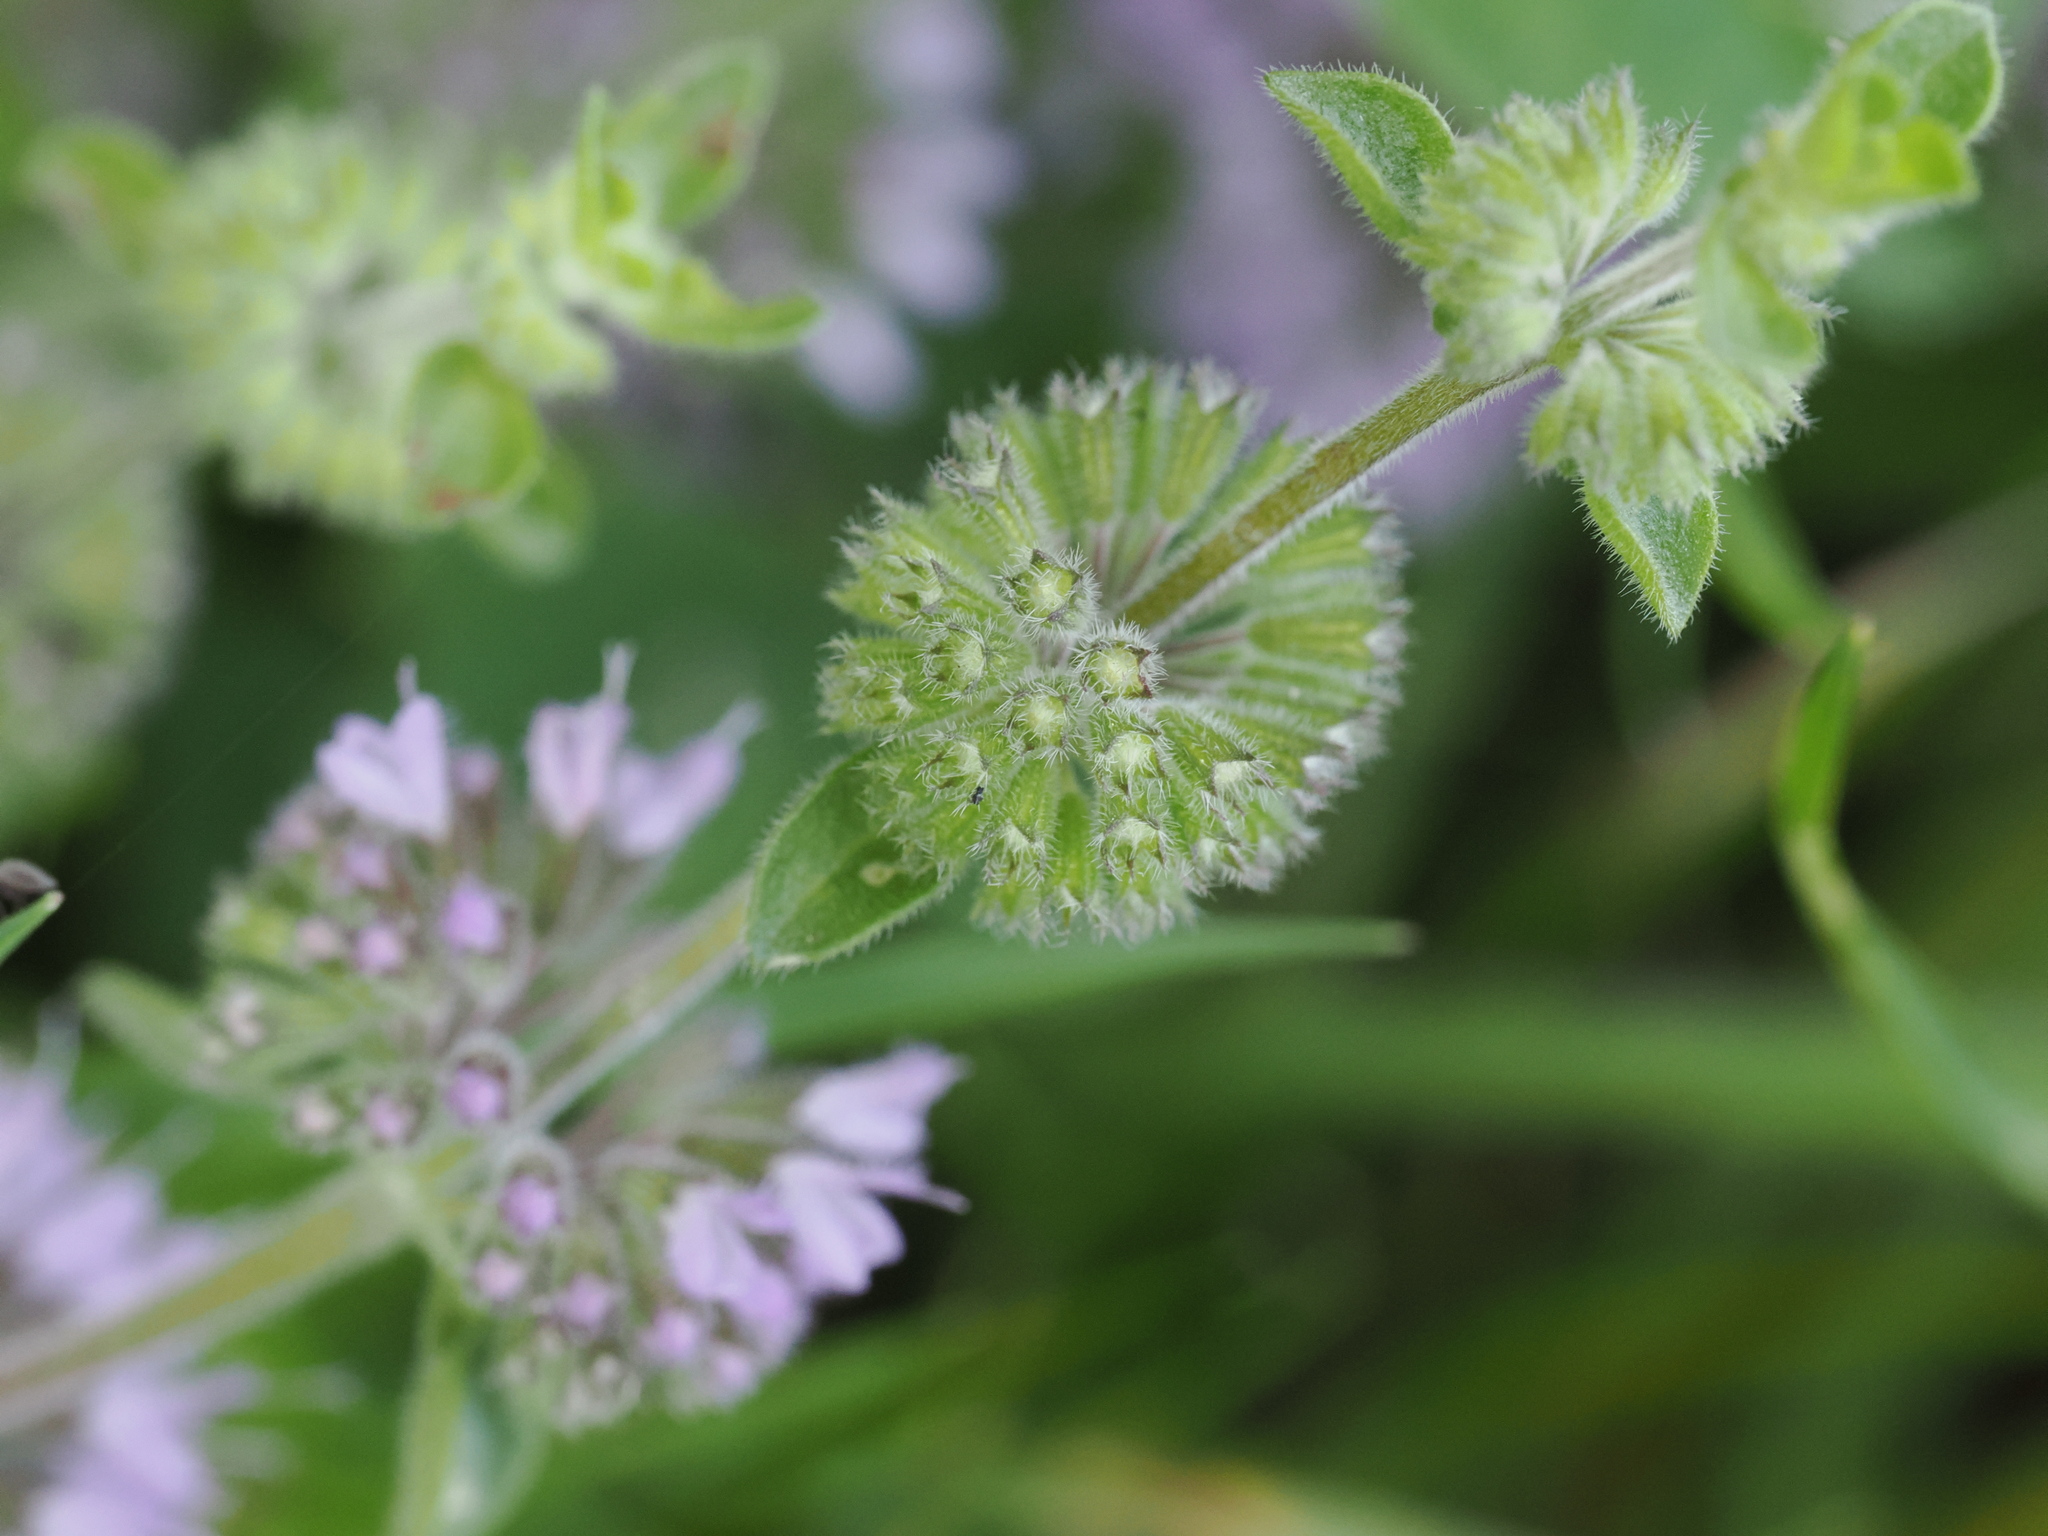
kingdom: Plantae
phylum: Tracheophyta
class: Magnoliopsida
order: Lamiales
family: Lamiaceae
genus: Mentha
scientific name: Mentha pulegium
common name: Pennyroyal
